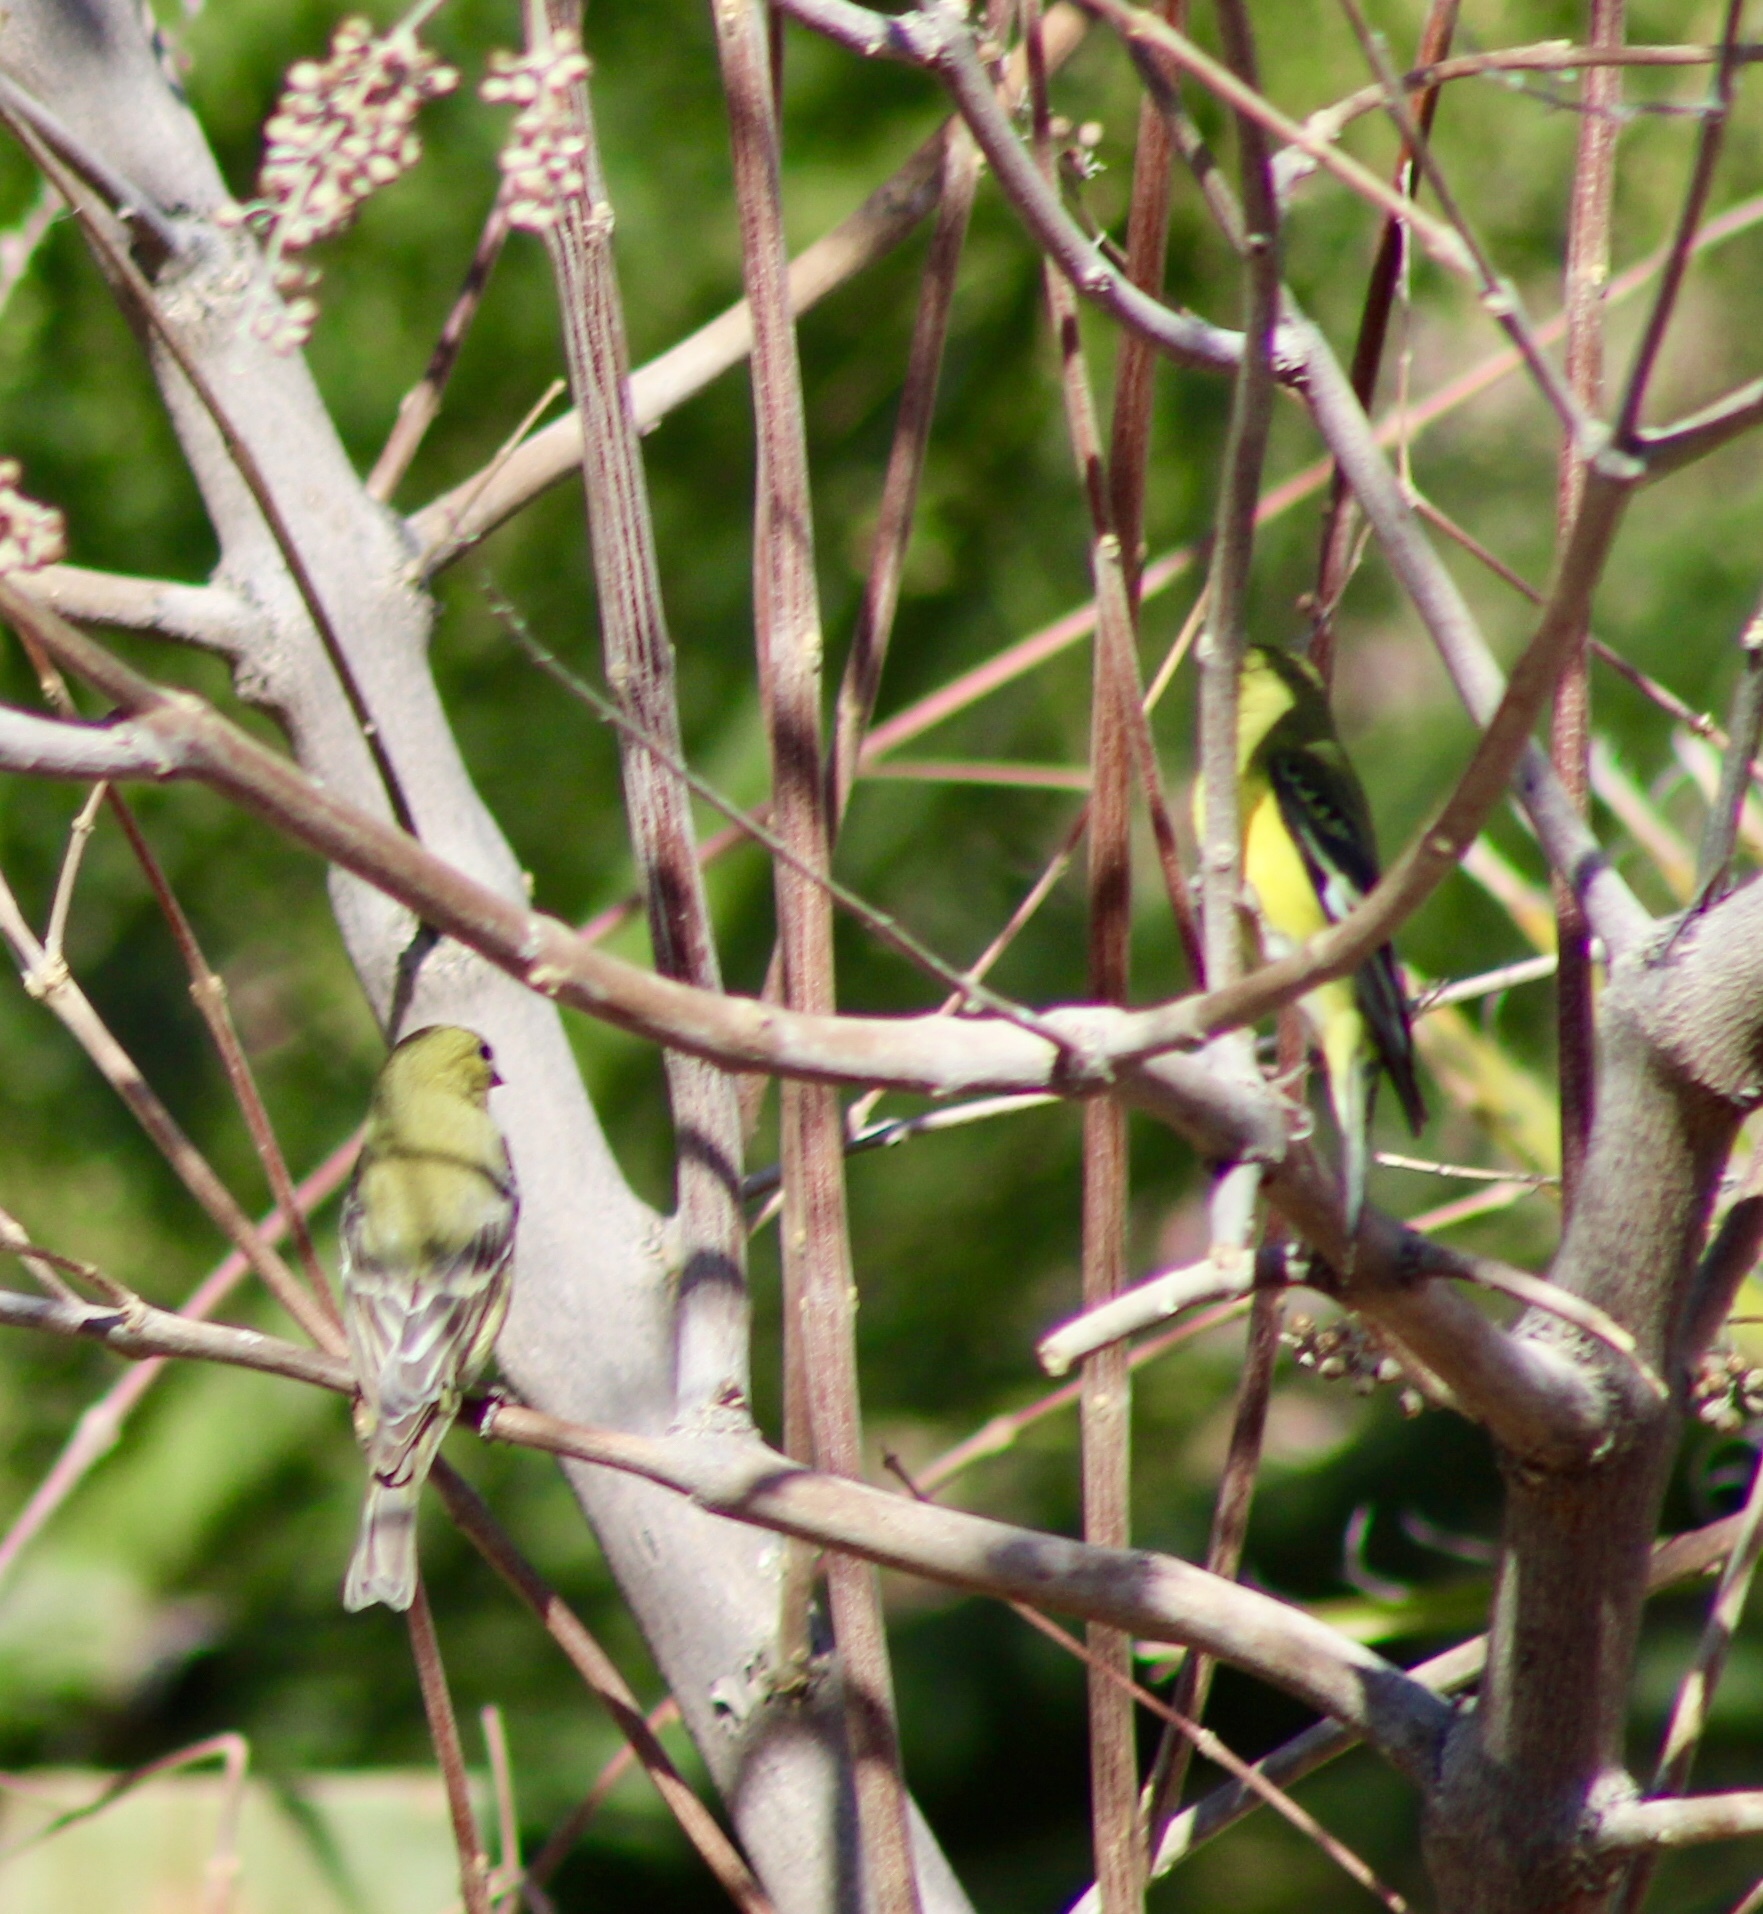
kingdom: Animalia
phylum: Chordata
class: Aves
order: Passeriformes
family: Fringillidae
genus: Spinus
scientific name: Spinus psaltria
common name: Lesser goldfinch
